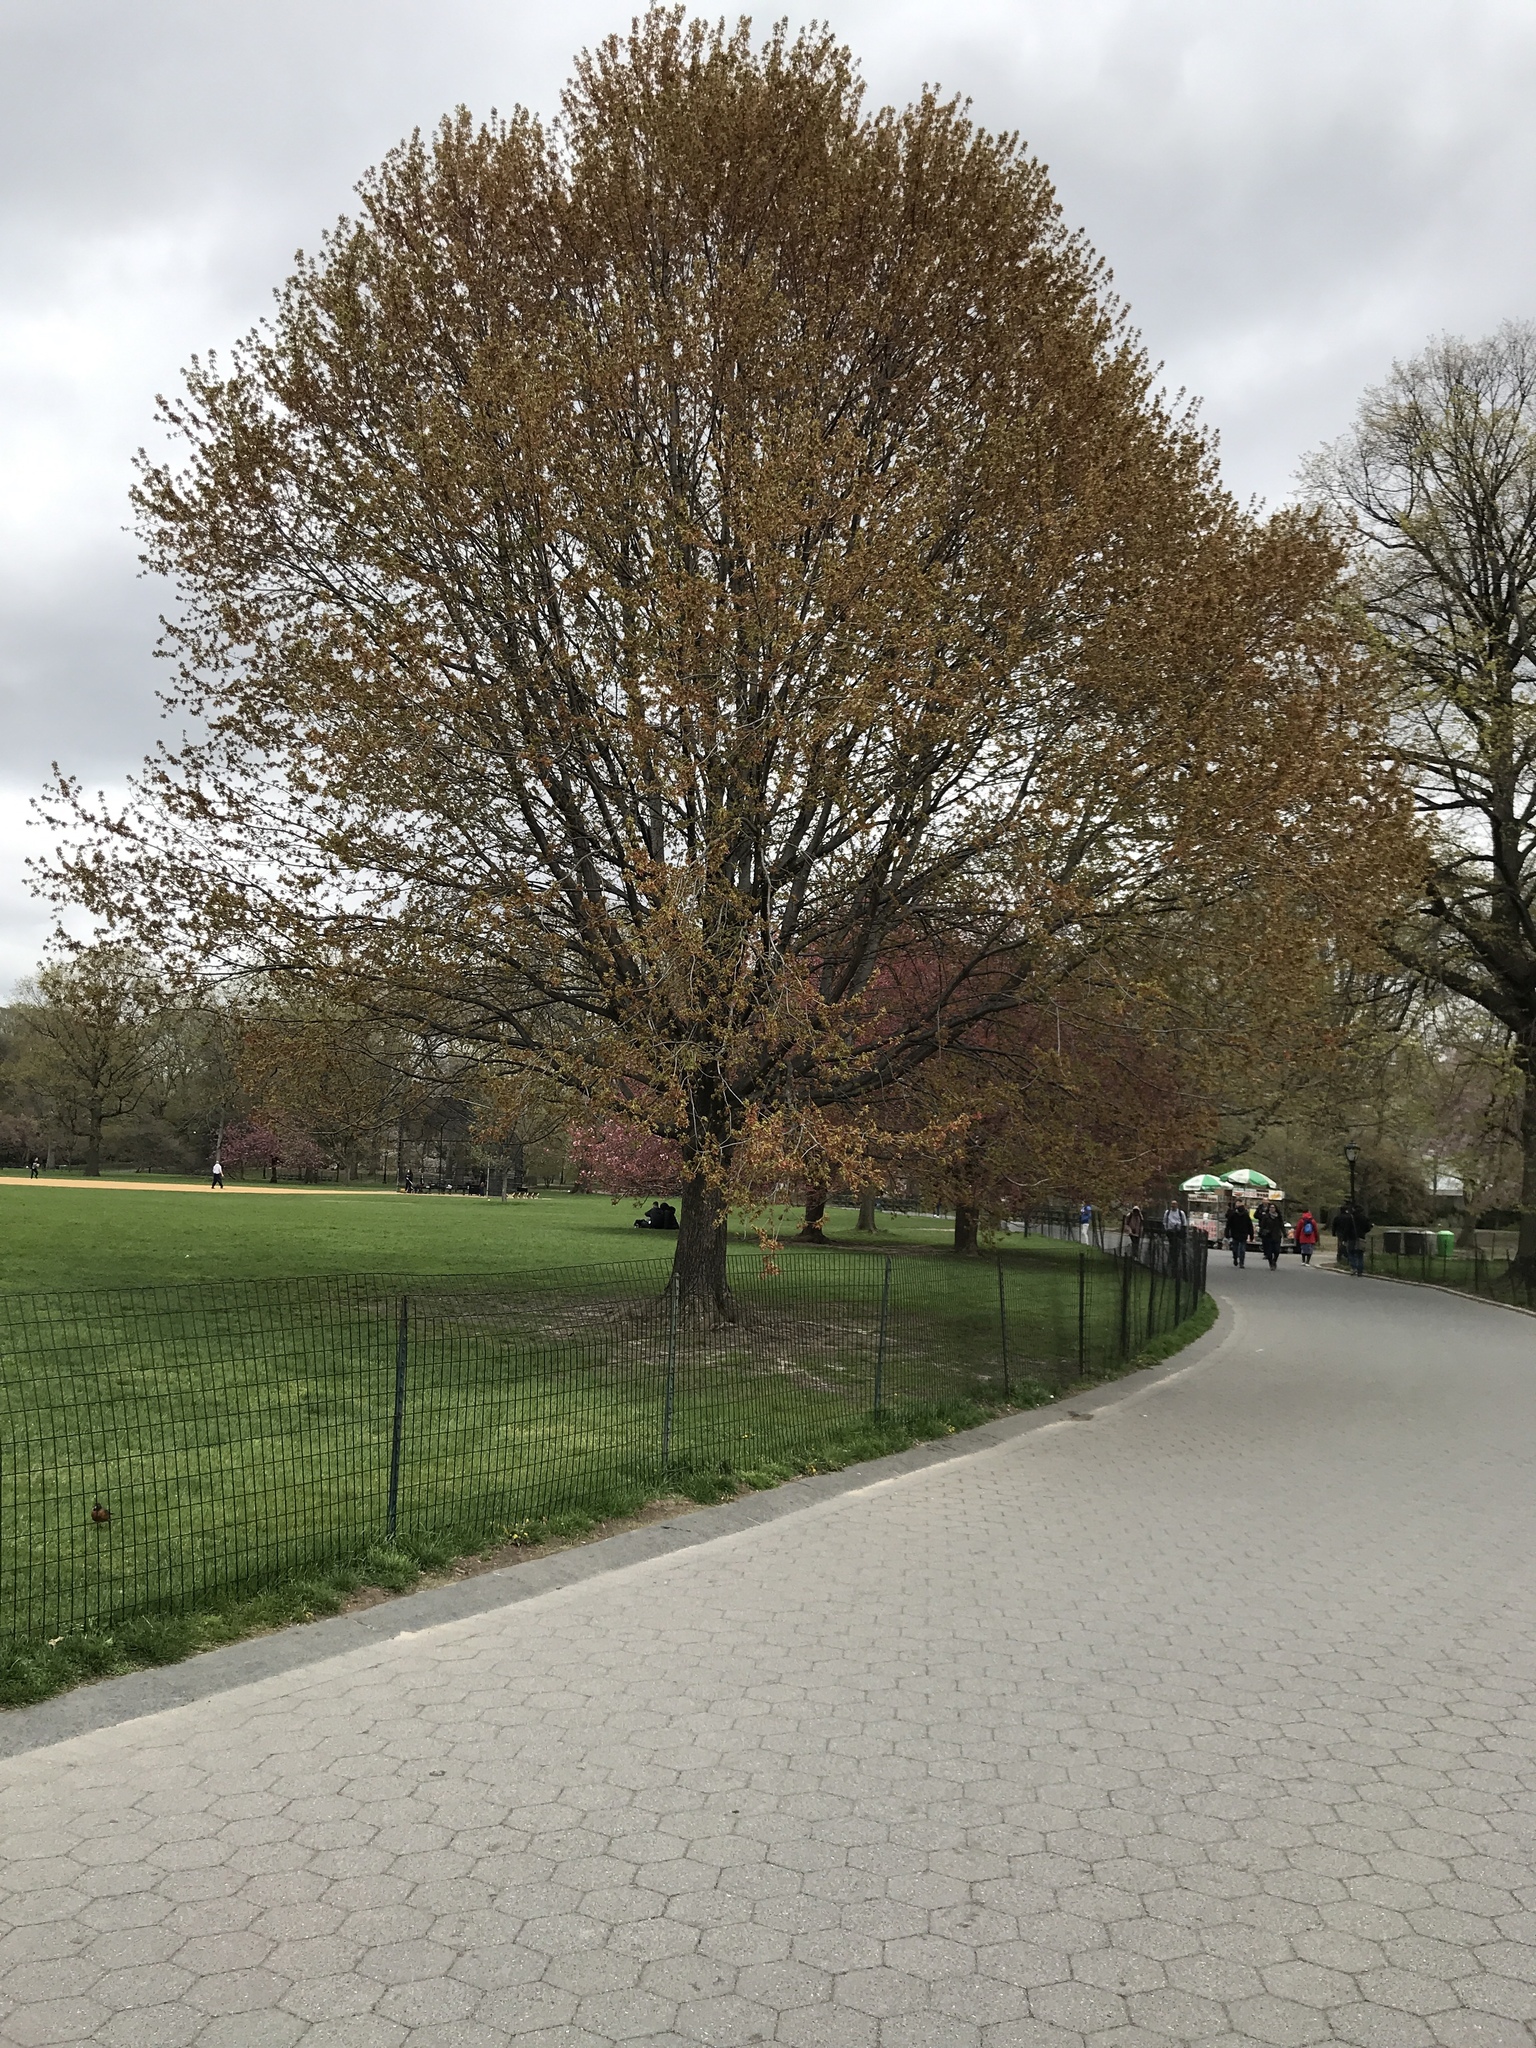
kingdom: Plantae
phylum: Tracheophyta
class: Magnoliopsida
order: Sapindales
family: Sapindaceae
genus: Acer
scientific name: Acer rubrum
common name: Red maple
